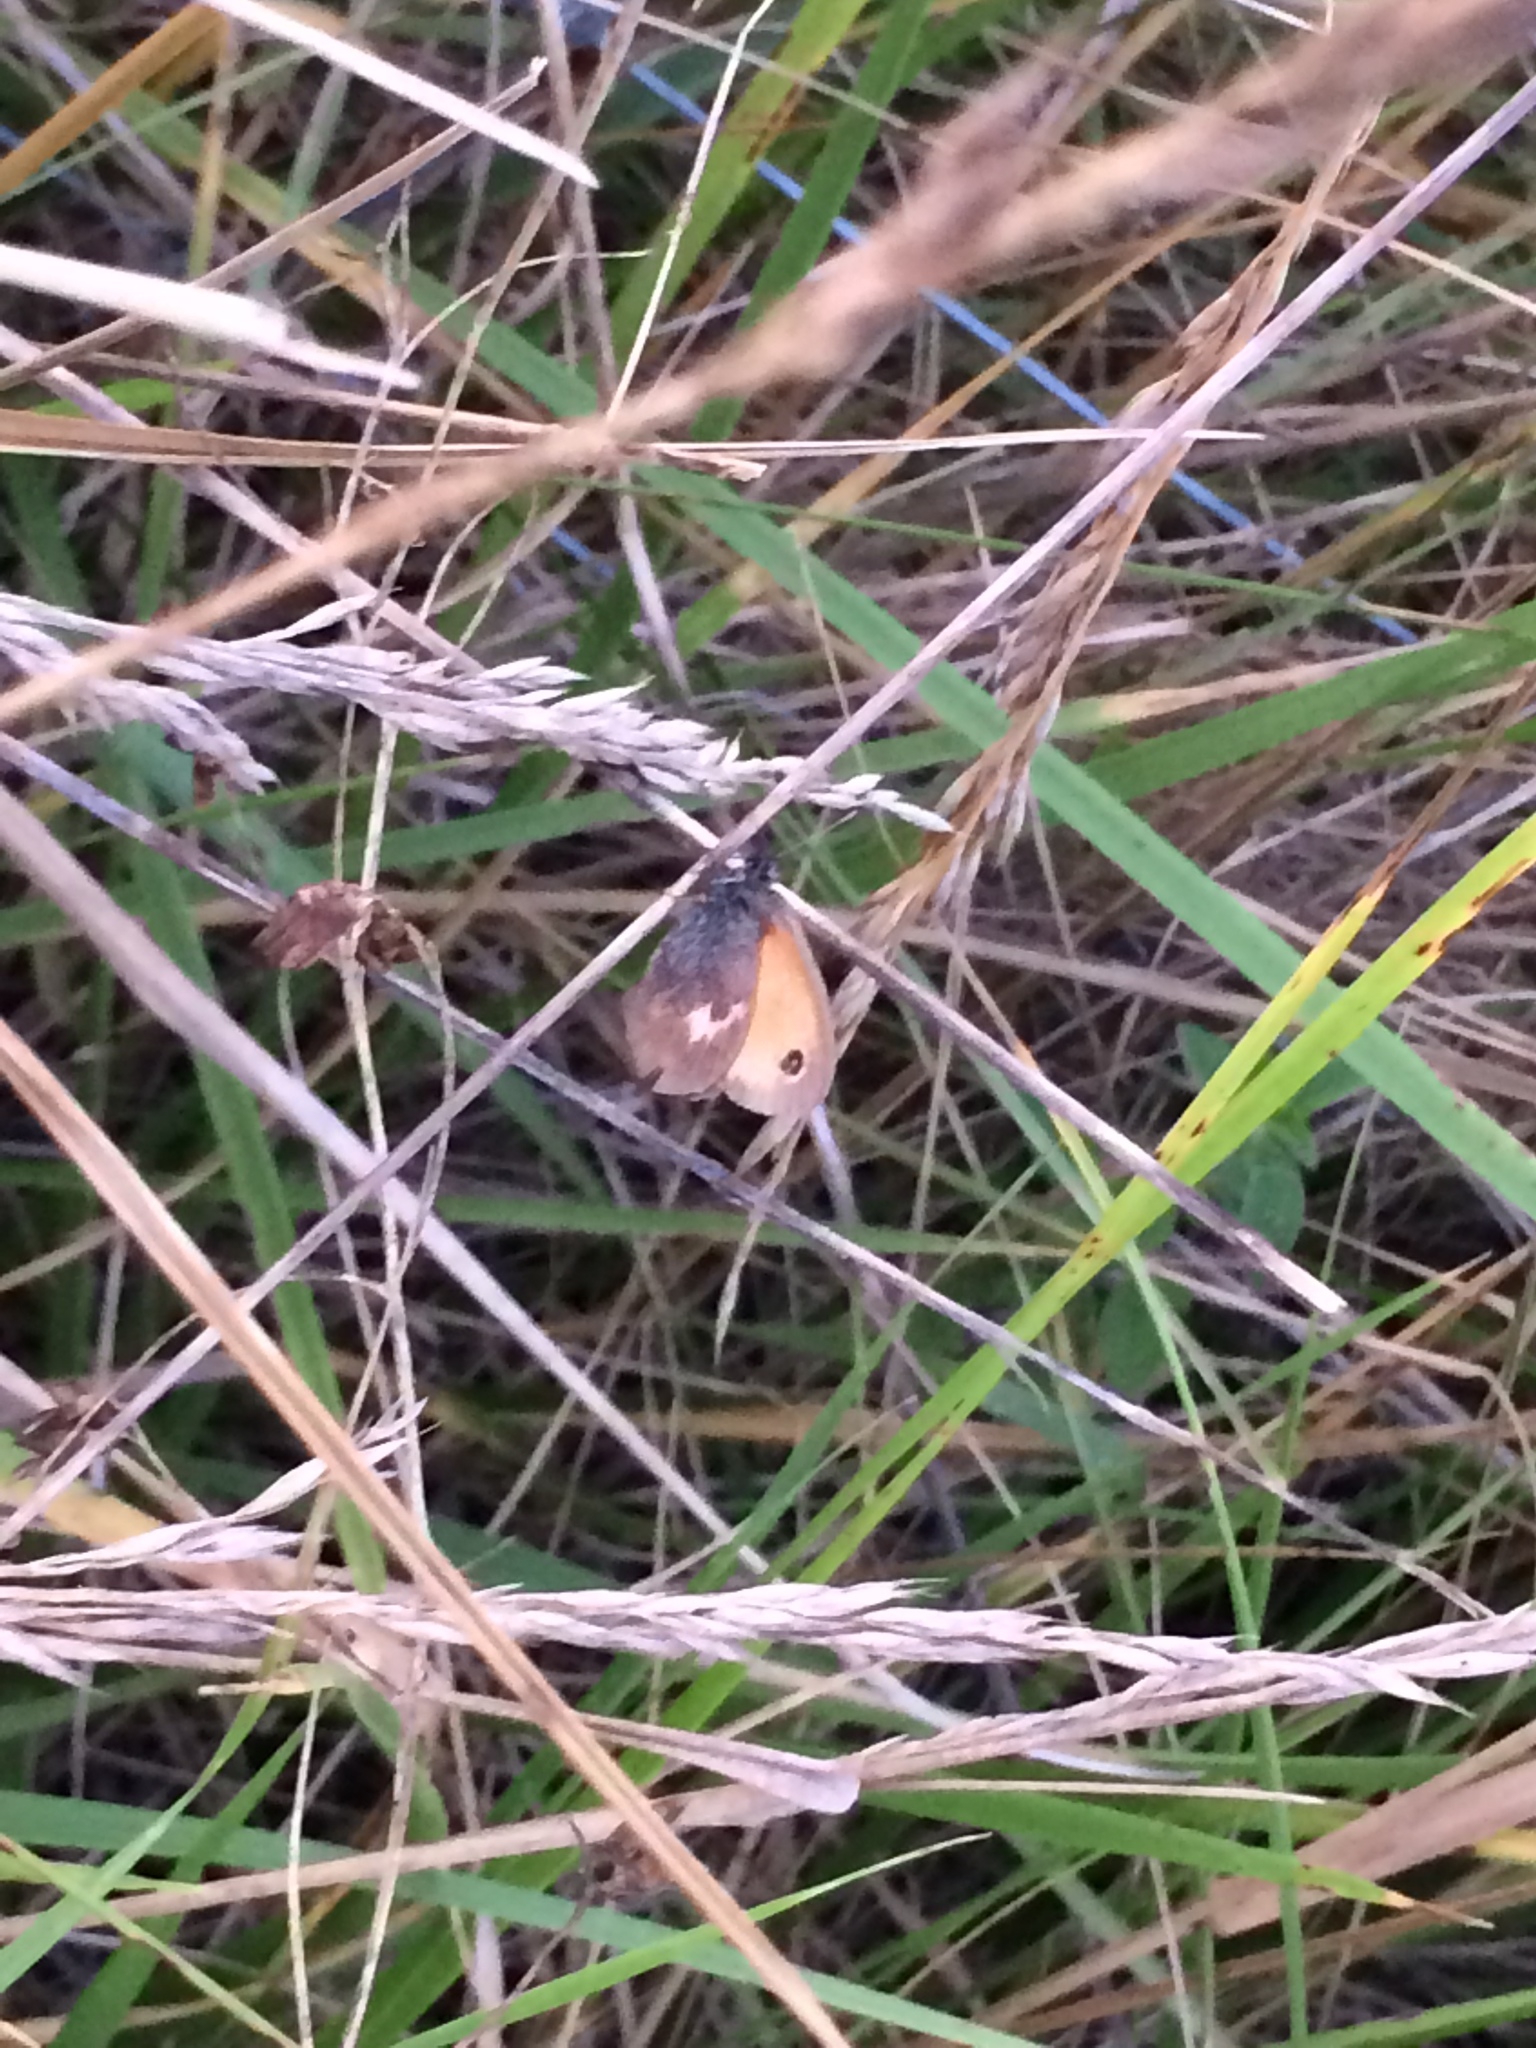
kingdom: Animalia
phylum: Arthropoda
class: Insecta
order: Lepidoptera
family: Nymphalidae
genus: Coenonympha
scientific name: Coenonympha pamphilus
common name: Small heath
